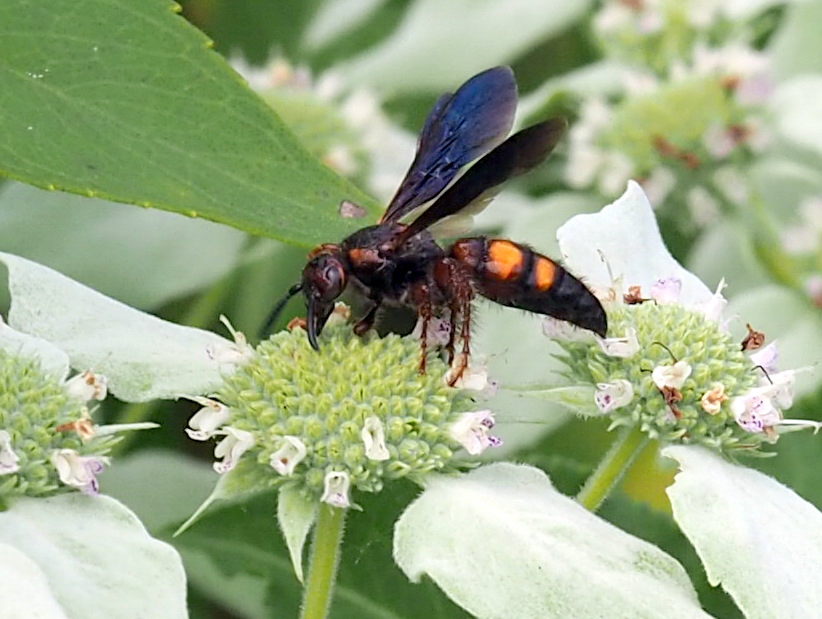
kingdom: Animalia
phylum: Arthropoda
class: Insecta
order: Hymenoptera
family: Scoliidae
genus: Scolia
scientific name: Scolia nobilitata
